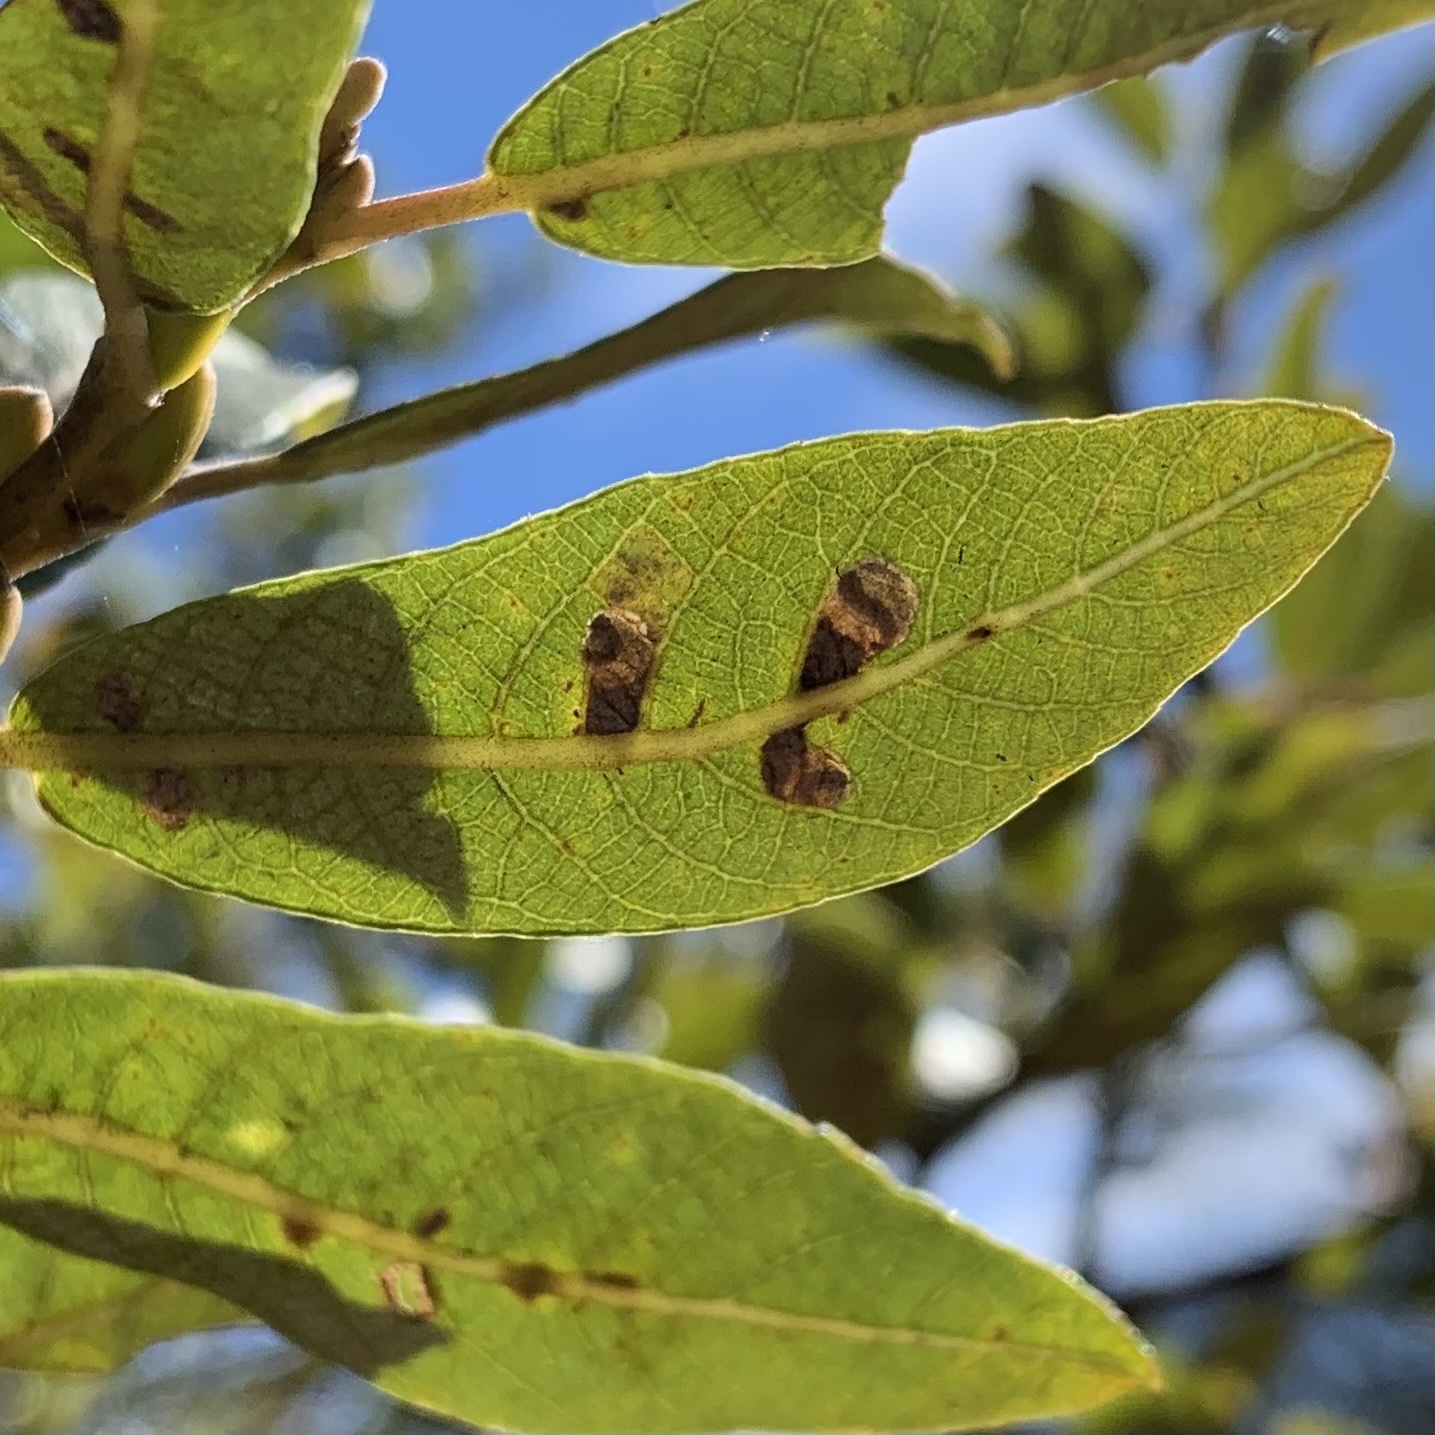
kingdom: Animalia
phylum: Arthropoda
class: Insecta
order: Lepidoptera
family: Heliozelidae
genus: Coptodisca
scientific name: Coptodisca saliciella
